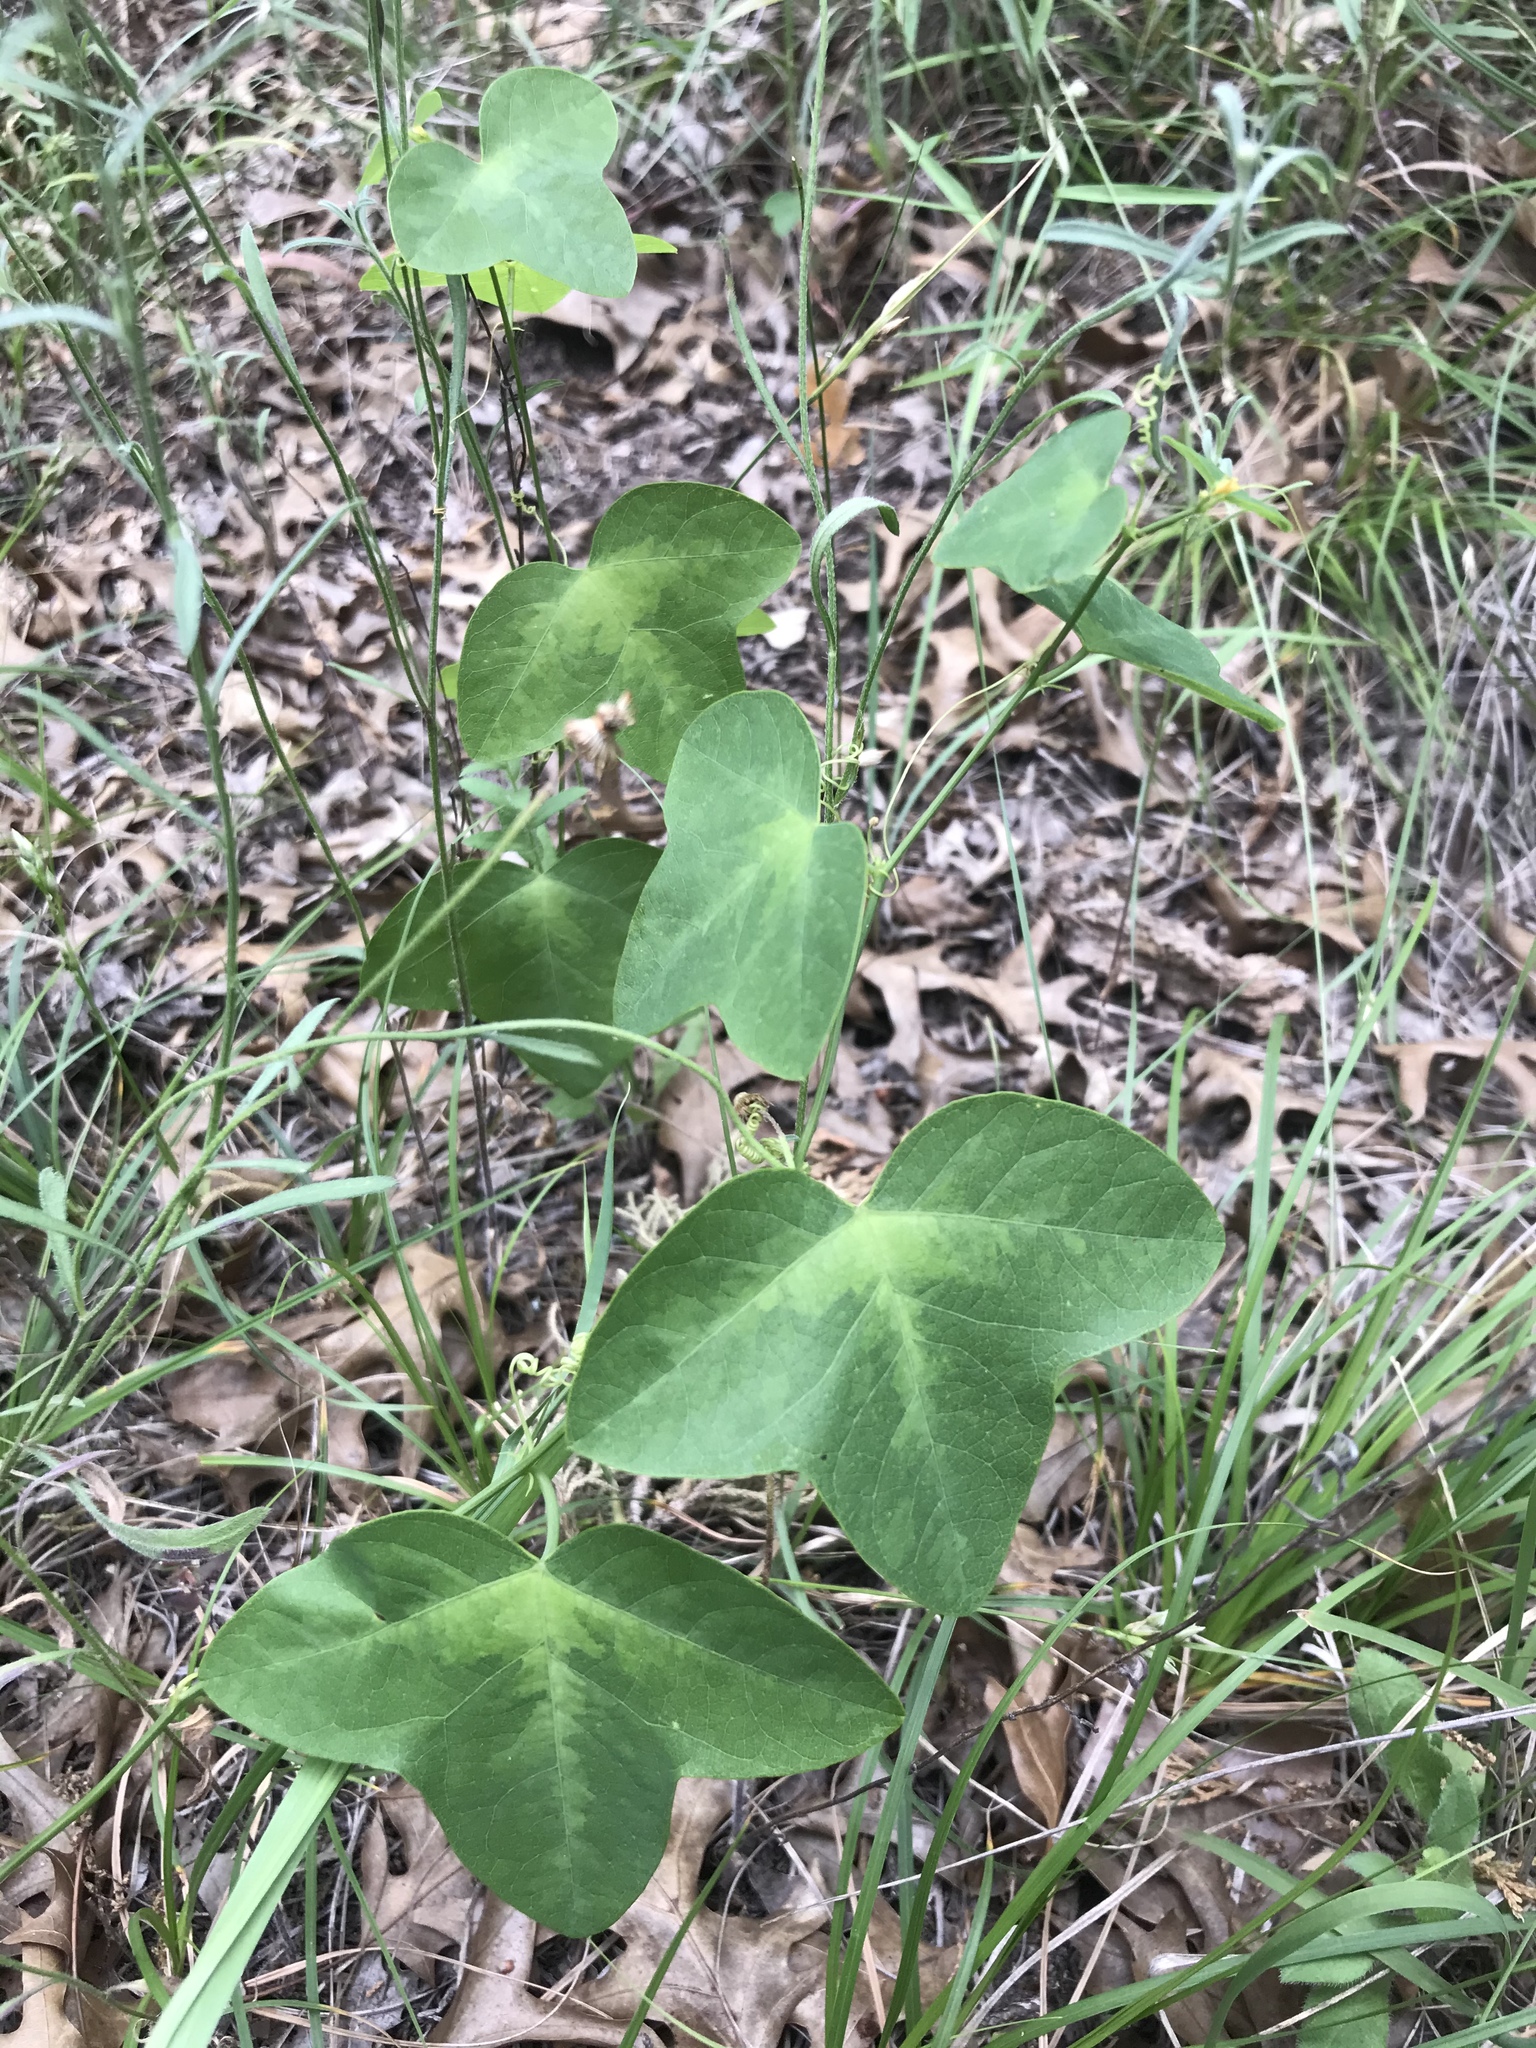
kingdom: Plantae
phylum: Tracheophyta
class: Magnoliopsida
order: Malpighiales
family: Passifloraceae
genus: Passiflora
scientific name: Passiflora lutea
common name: Yellow passionflower
